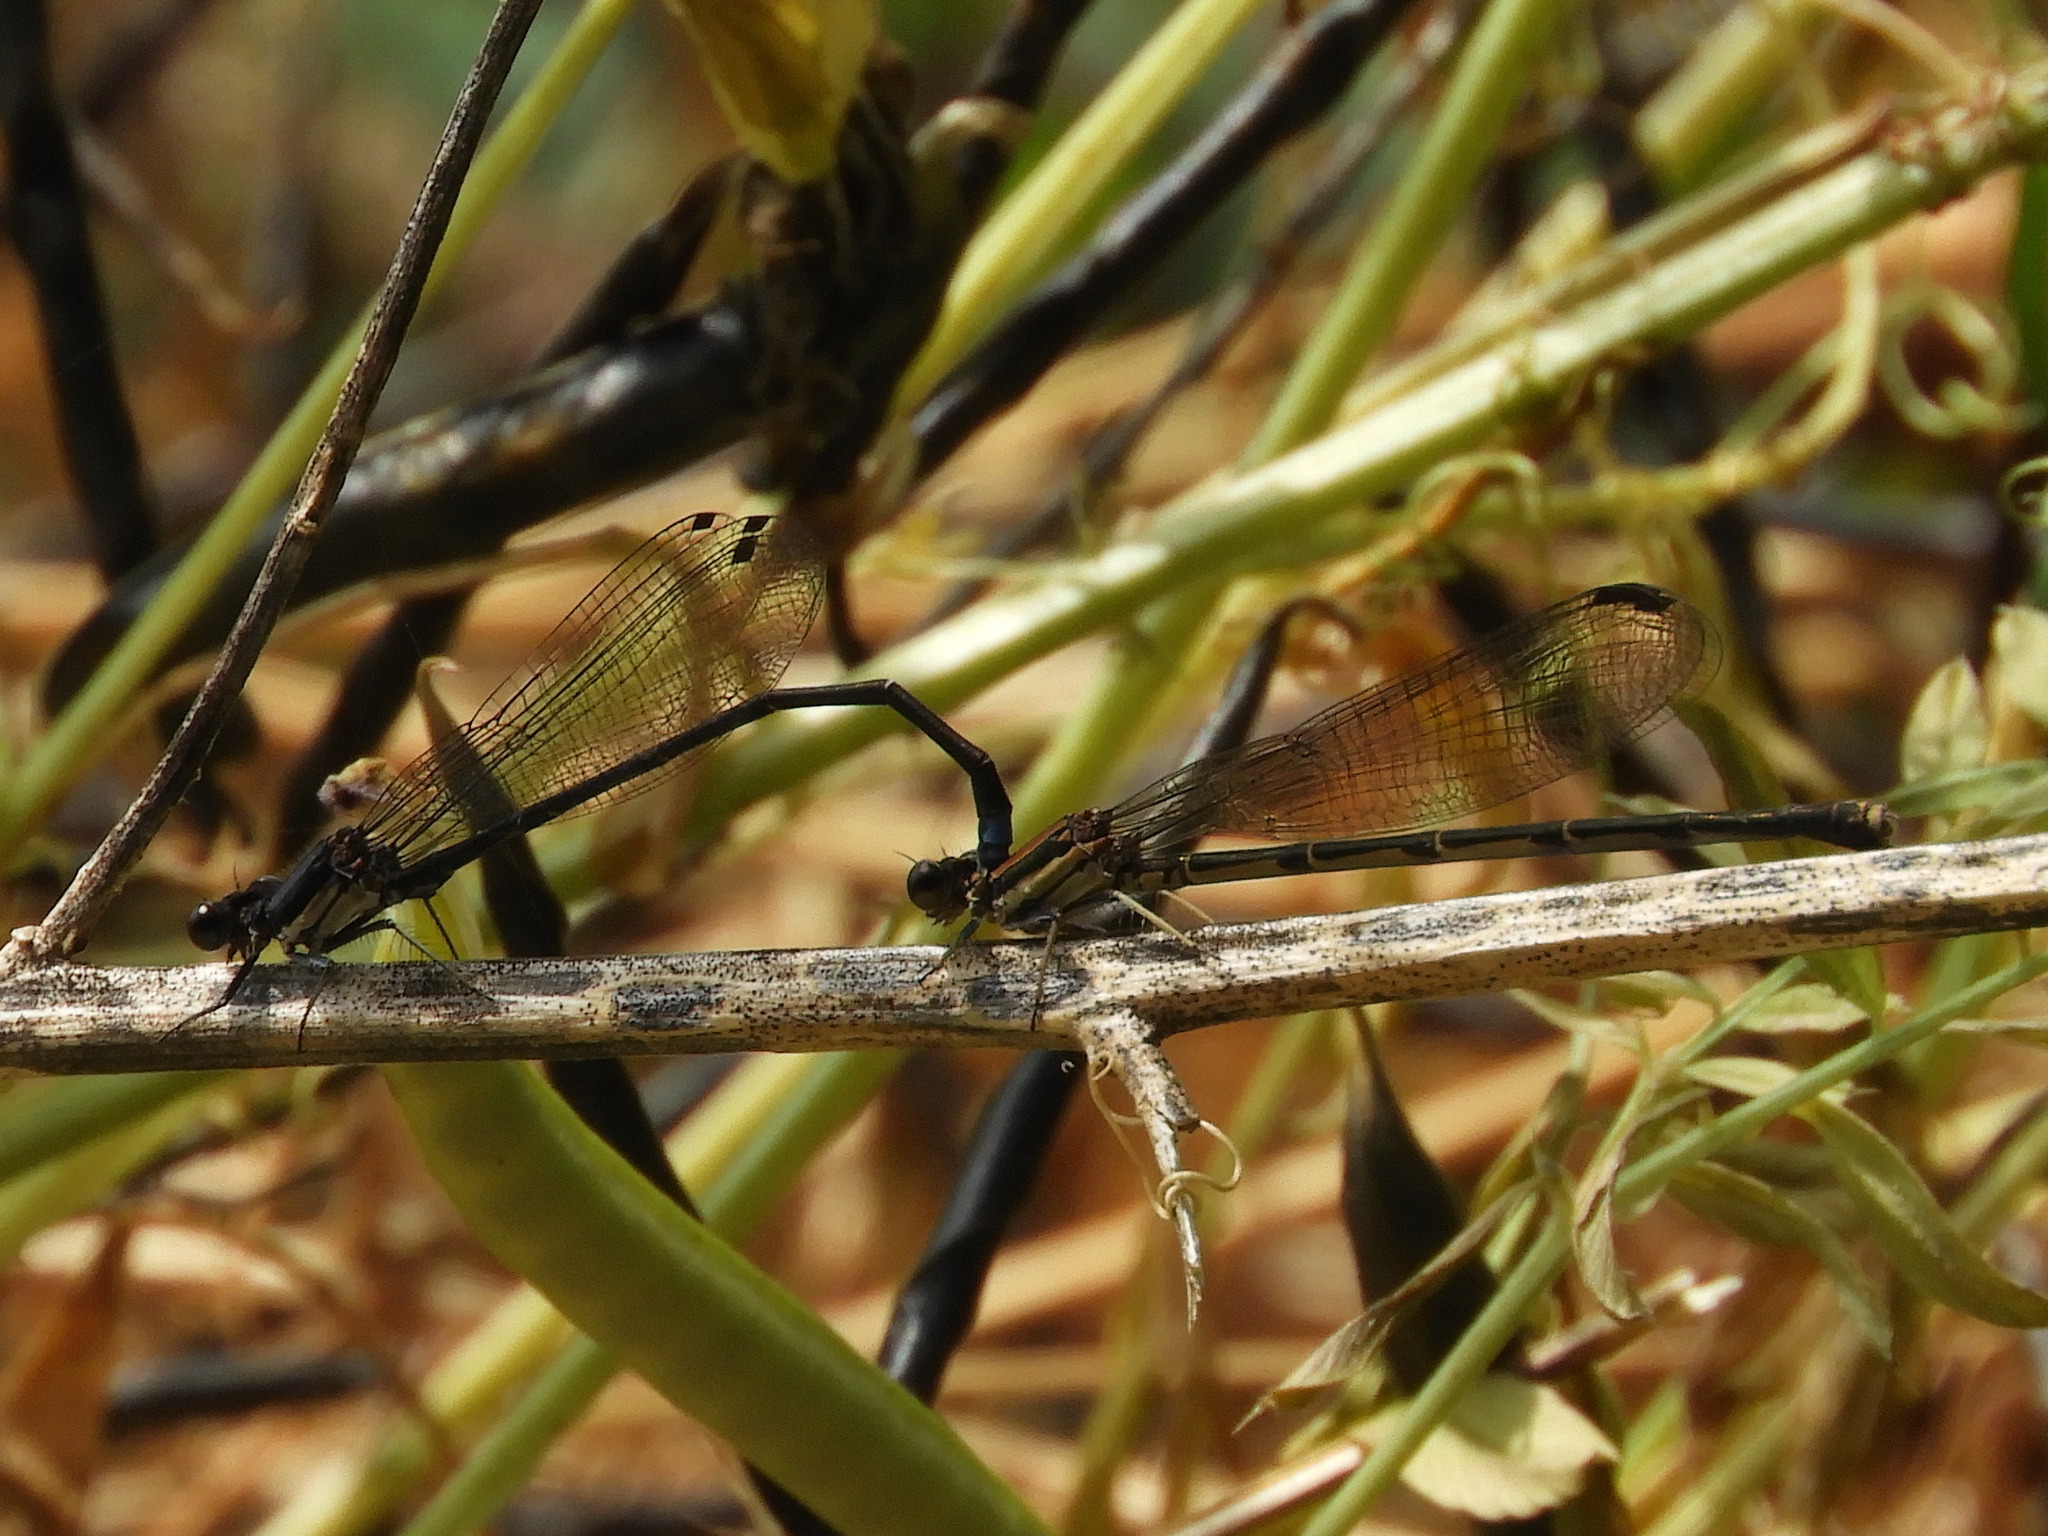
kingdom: Animalia
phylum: Arthropoda
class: Insecta
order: Odonata
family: Coenagrionidae
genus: Argia
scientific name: Argia tibialis
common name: Blue-tipped dancer
